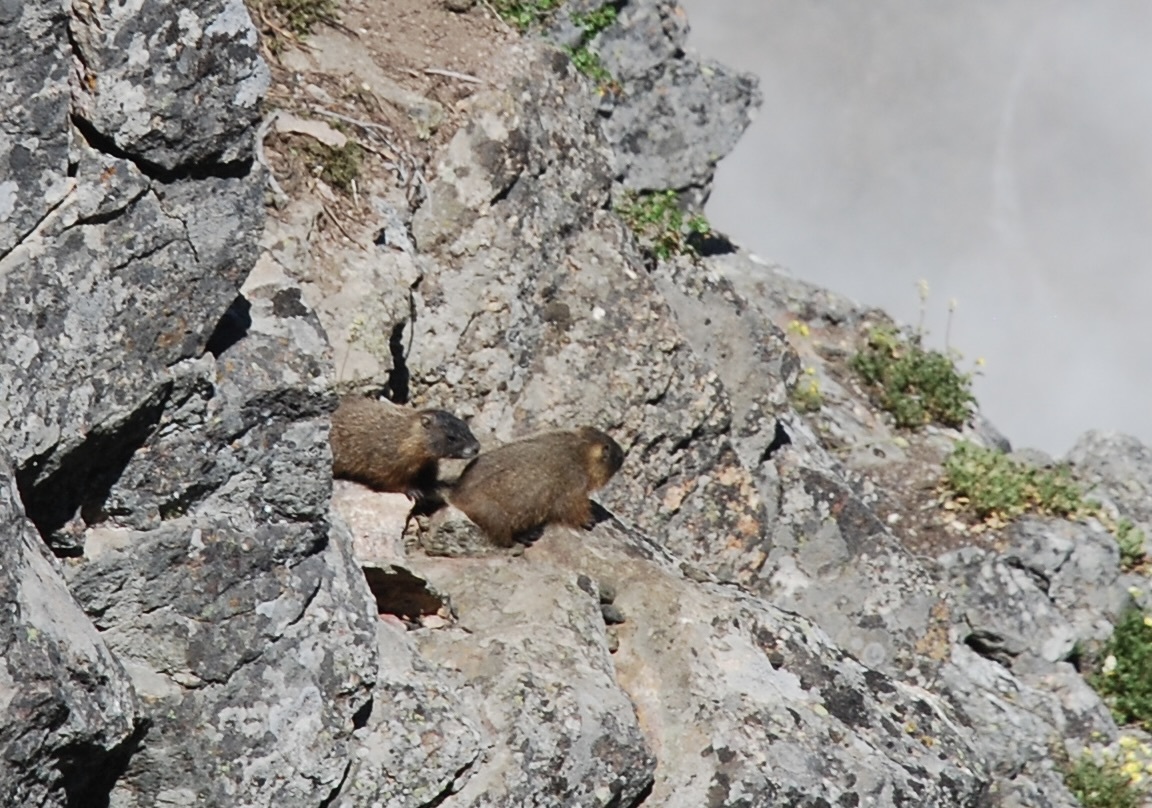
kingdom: Animalia
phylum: Chordata
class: Mammalia
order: Rodentia
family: Sciuridae
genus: Marmota
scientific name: Marmota flaviventris
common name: Yellow-bellied marmot
